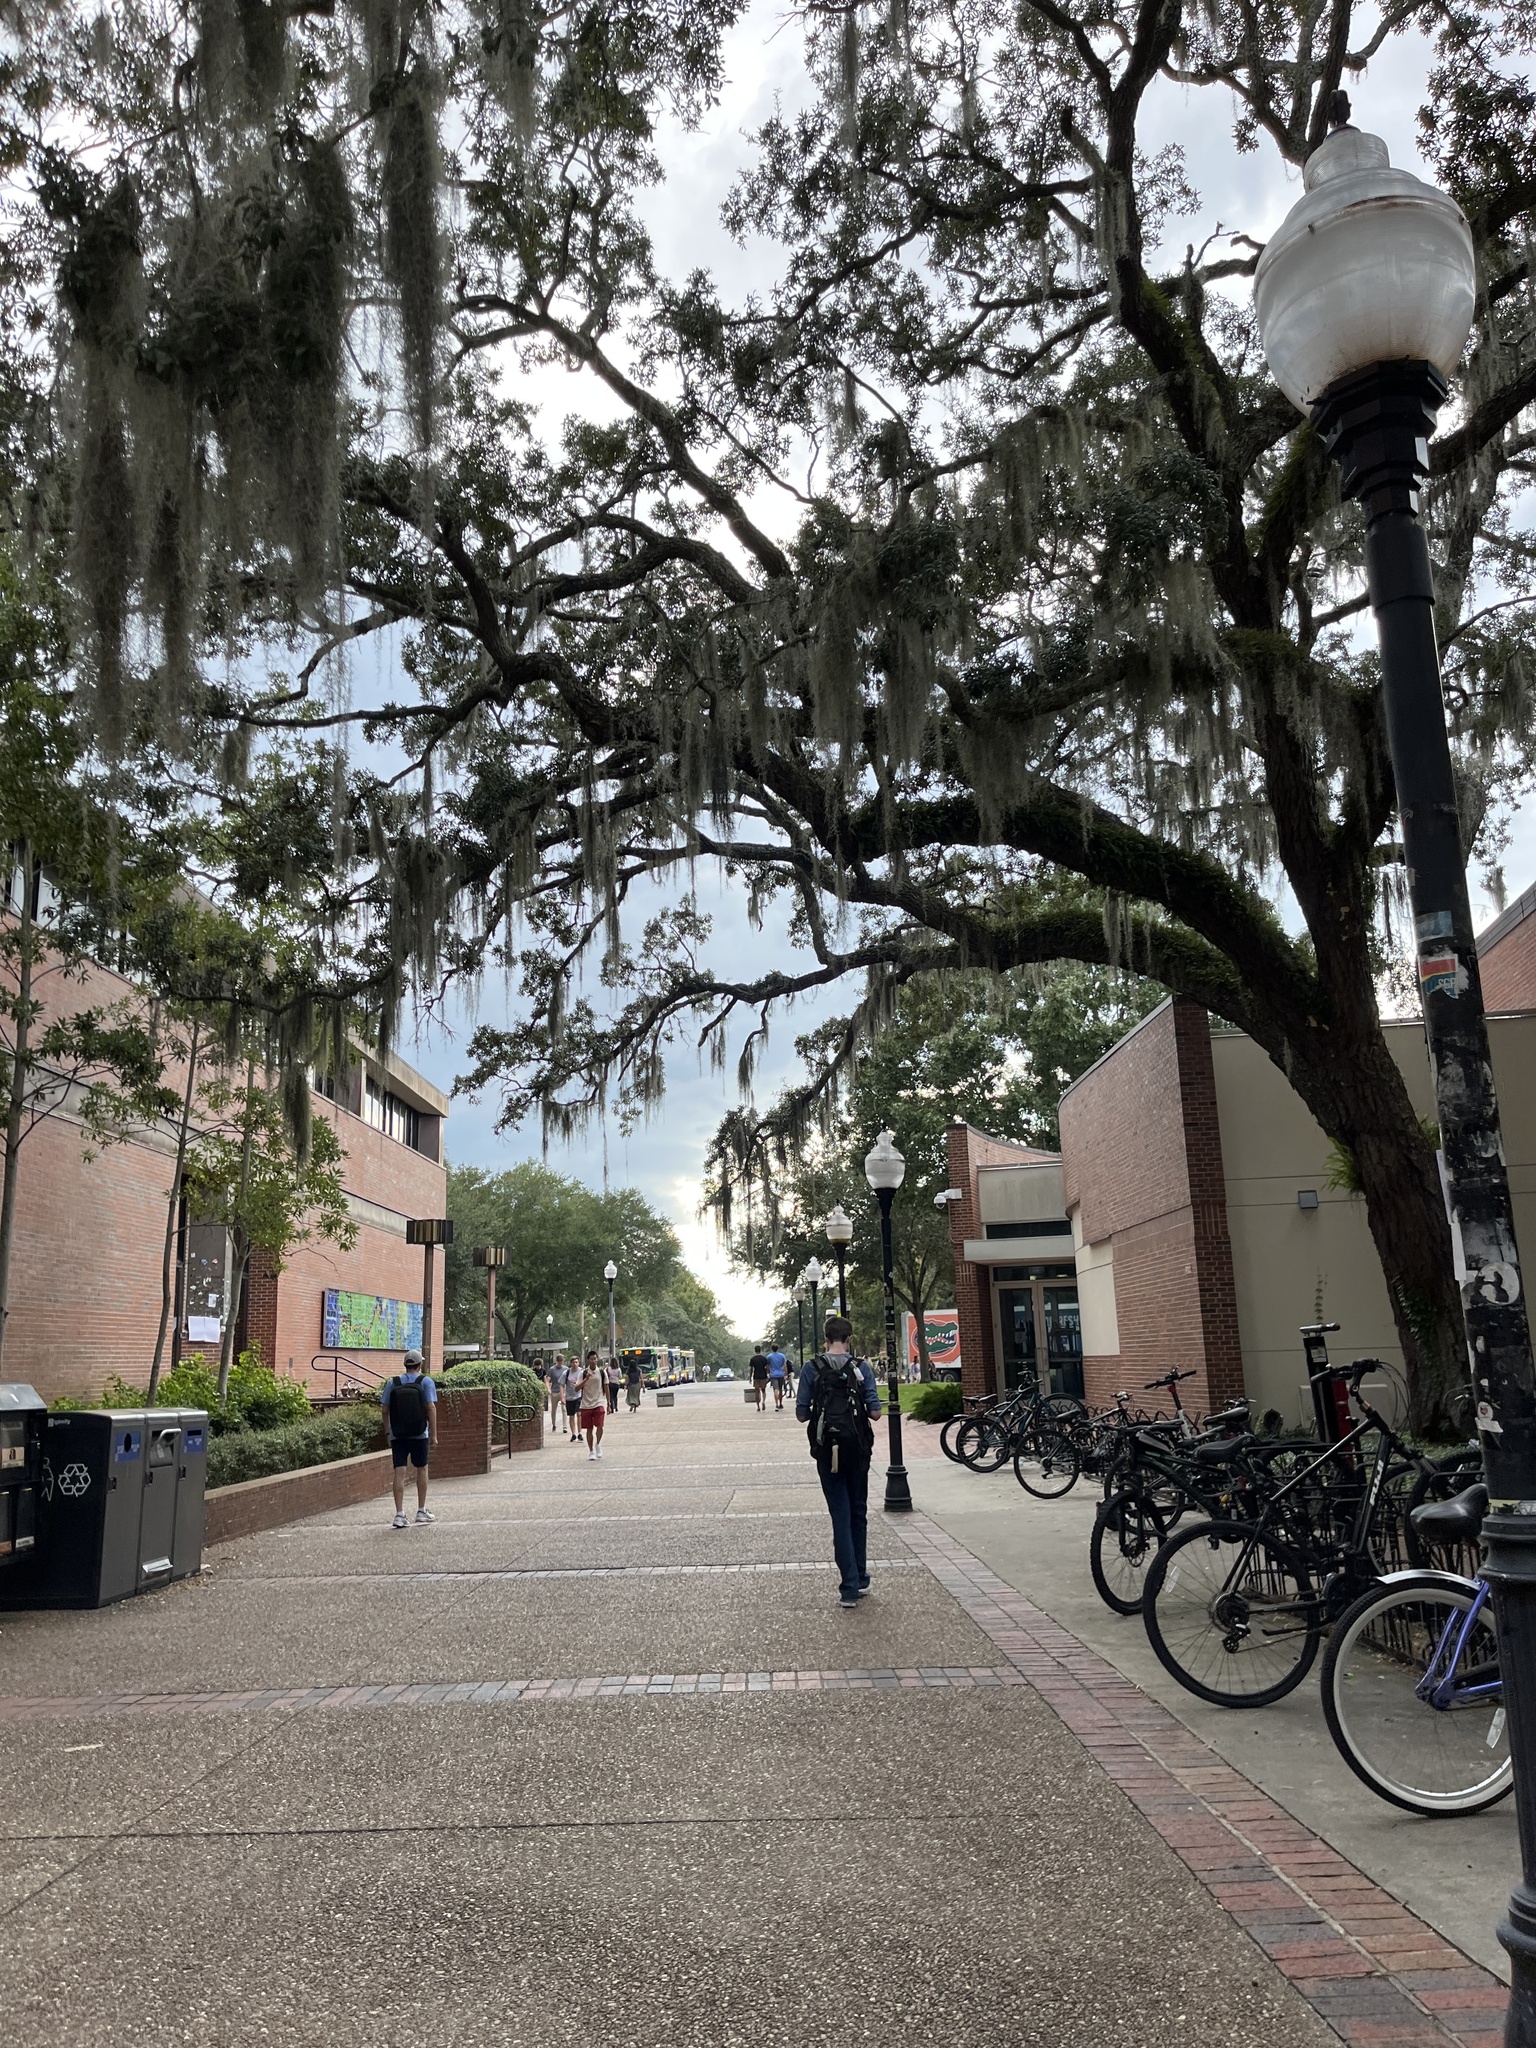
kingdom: Plantae
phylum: Tracheophyta
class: Liliopsida
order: Poales
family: Bromeliaceae
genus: Tillandsia
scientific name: Tillandsia usneoides
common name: Spanish moss
